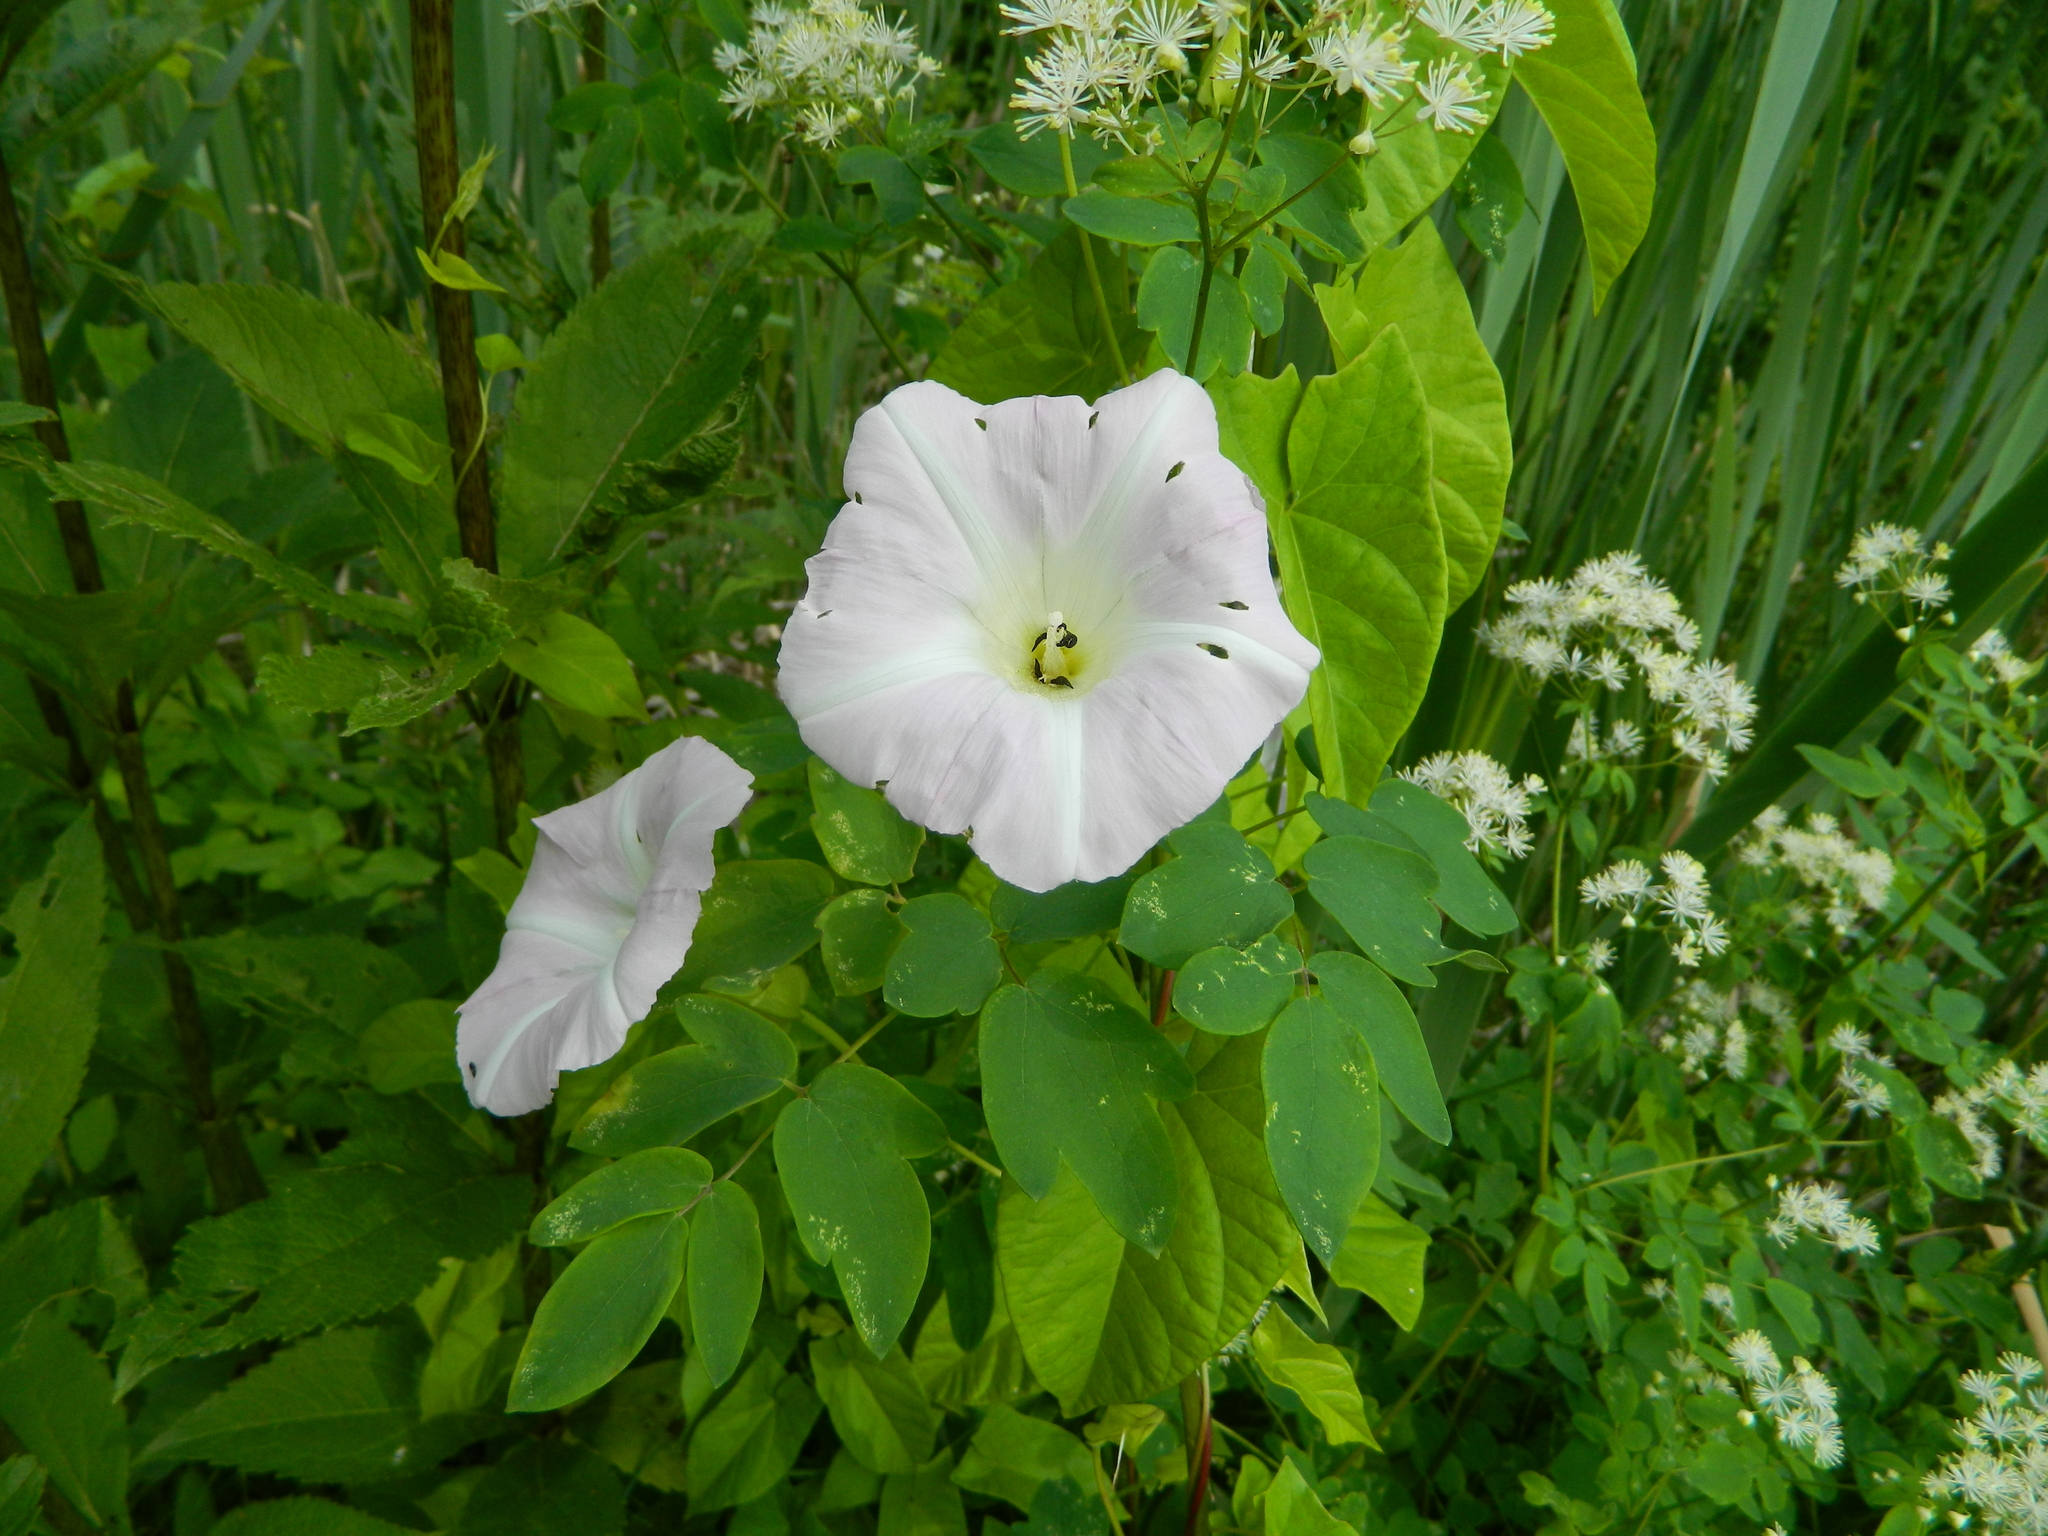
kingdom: Plantae
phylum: Tracheophyta
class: Magnoliopsida
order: Solanales
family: Convolvulaceae
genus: Calystegia
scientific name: Calystegia sepium
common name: Hedge bindweed
